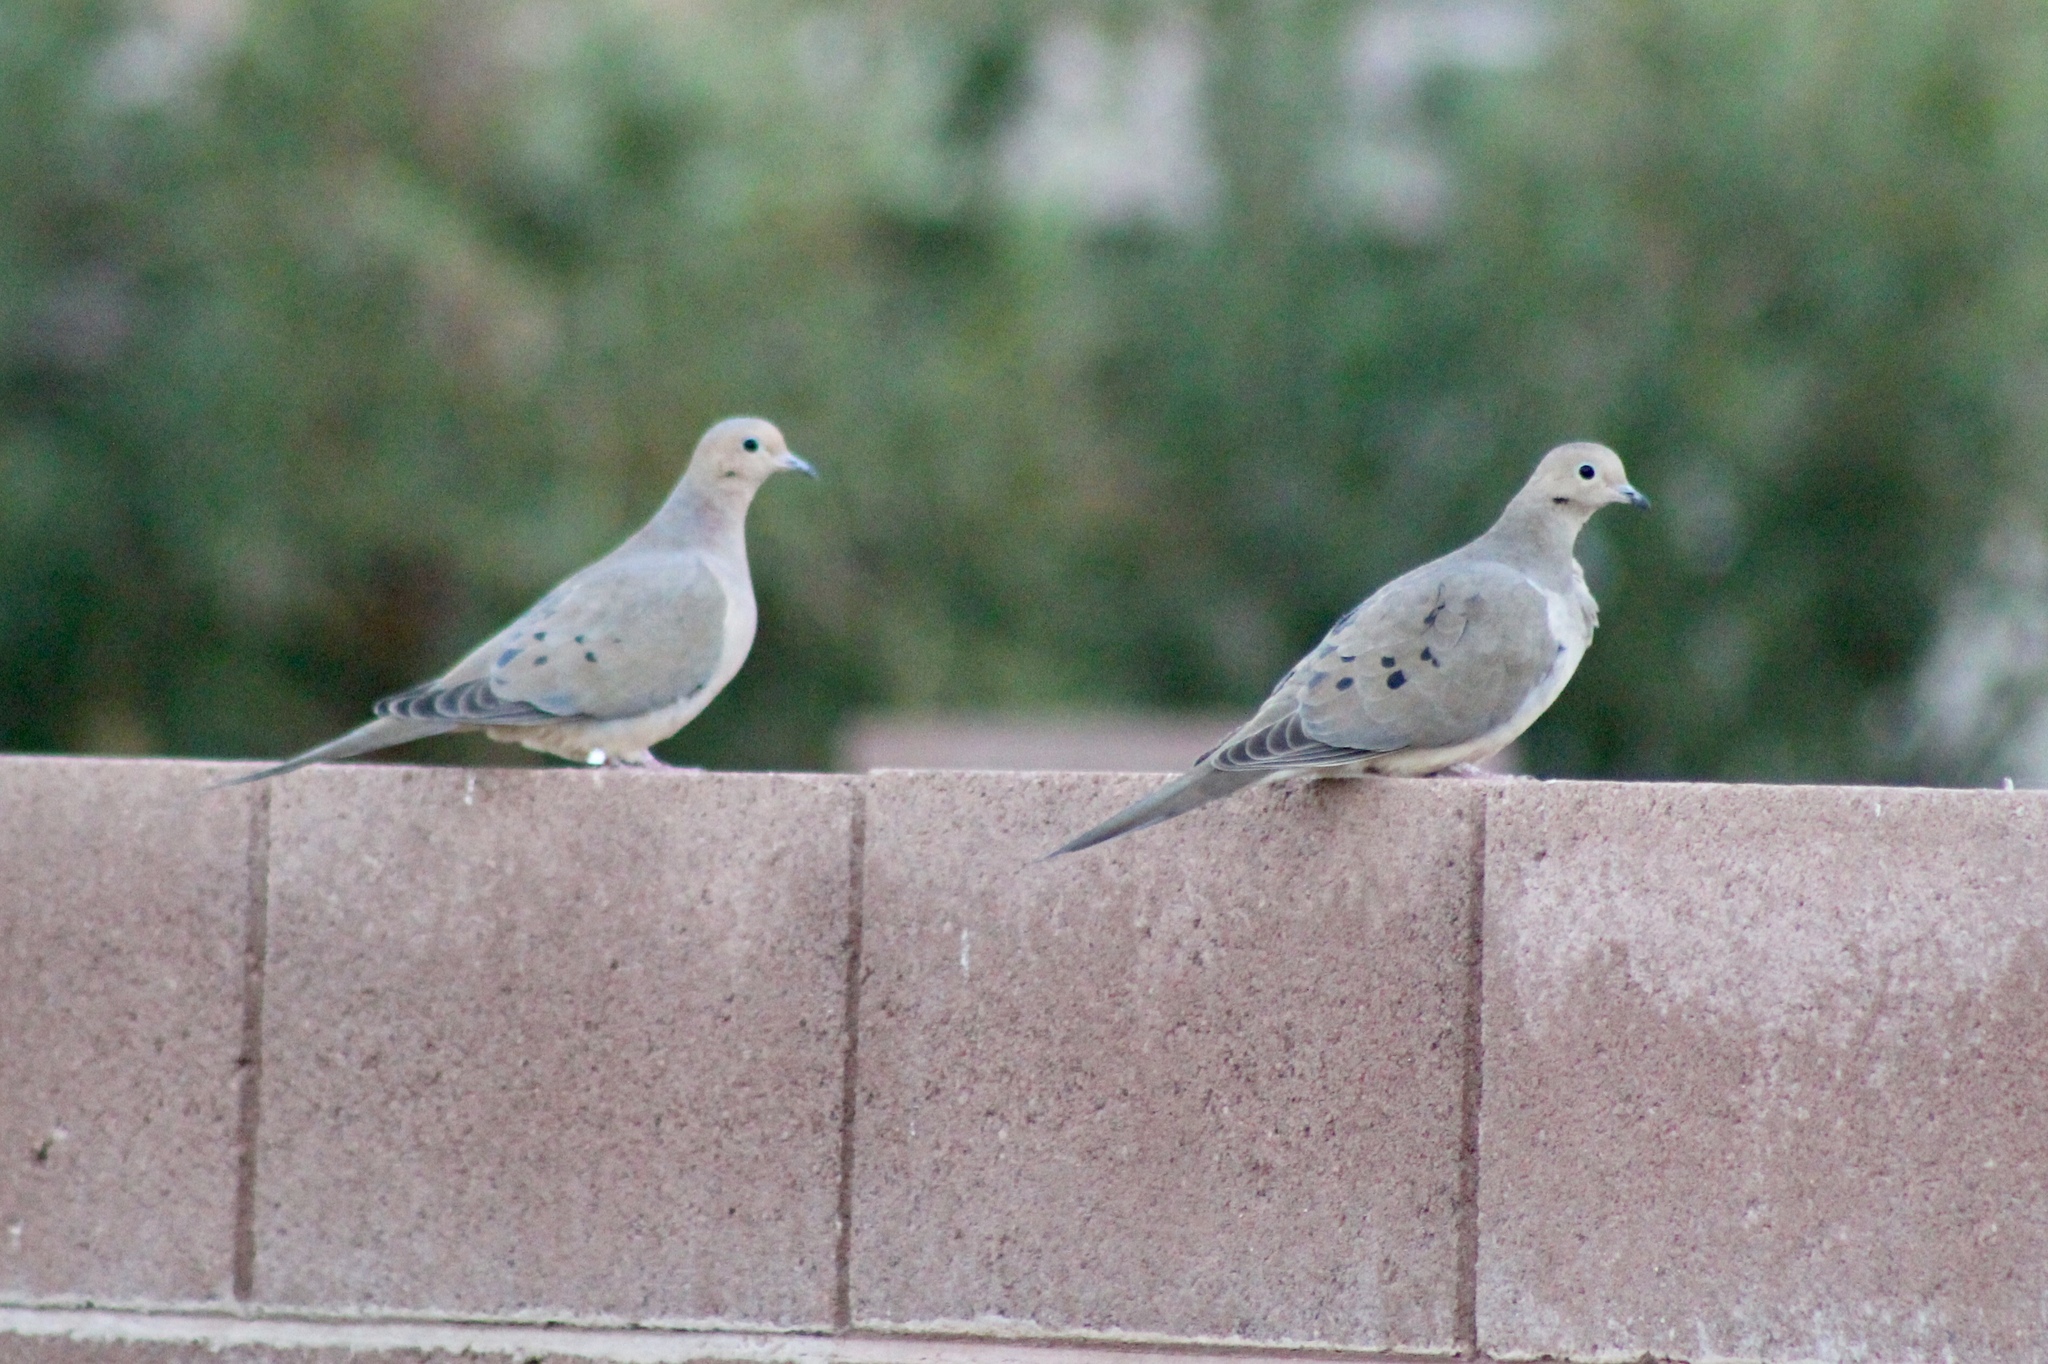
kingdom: Animalia
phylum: Chordata
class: Aves
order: Columbiformes
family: Columbidae
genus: Zenaida
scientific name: Zenaida macroura
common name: Mourning dove
